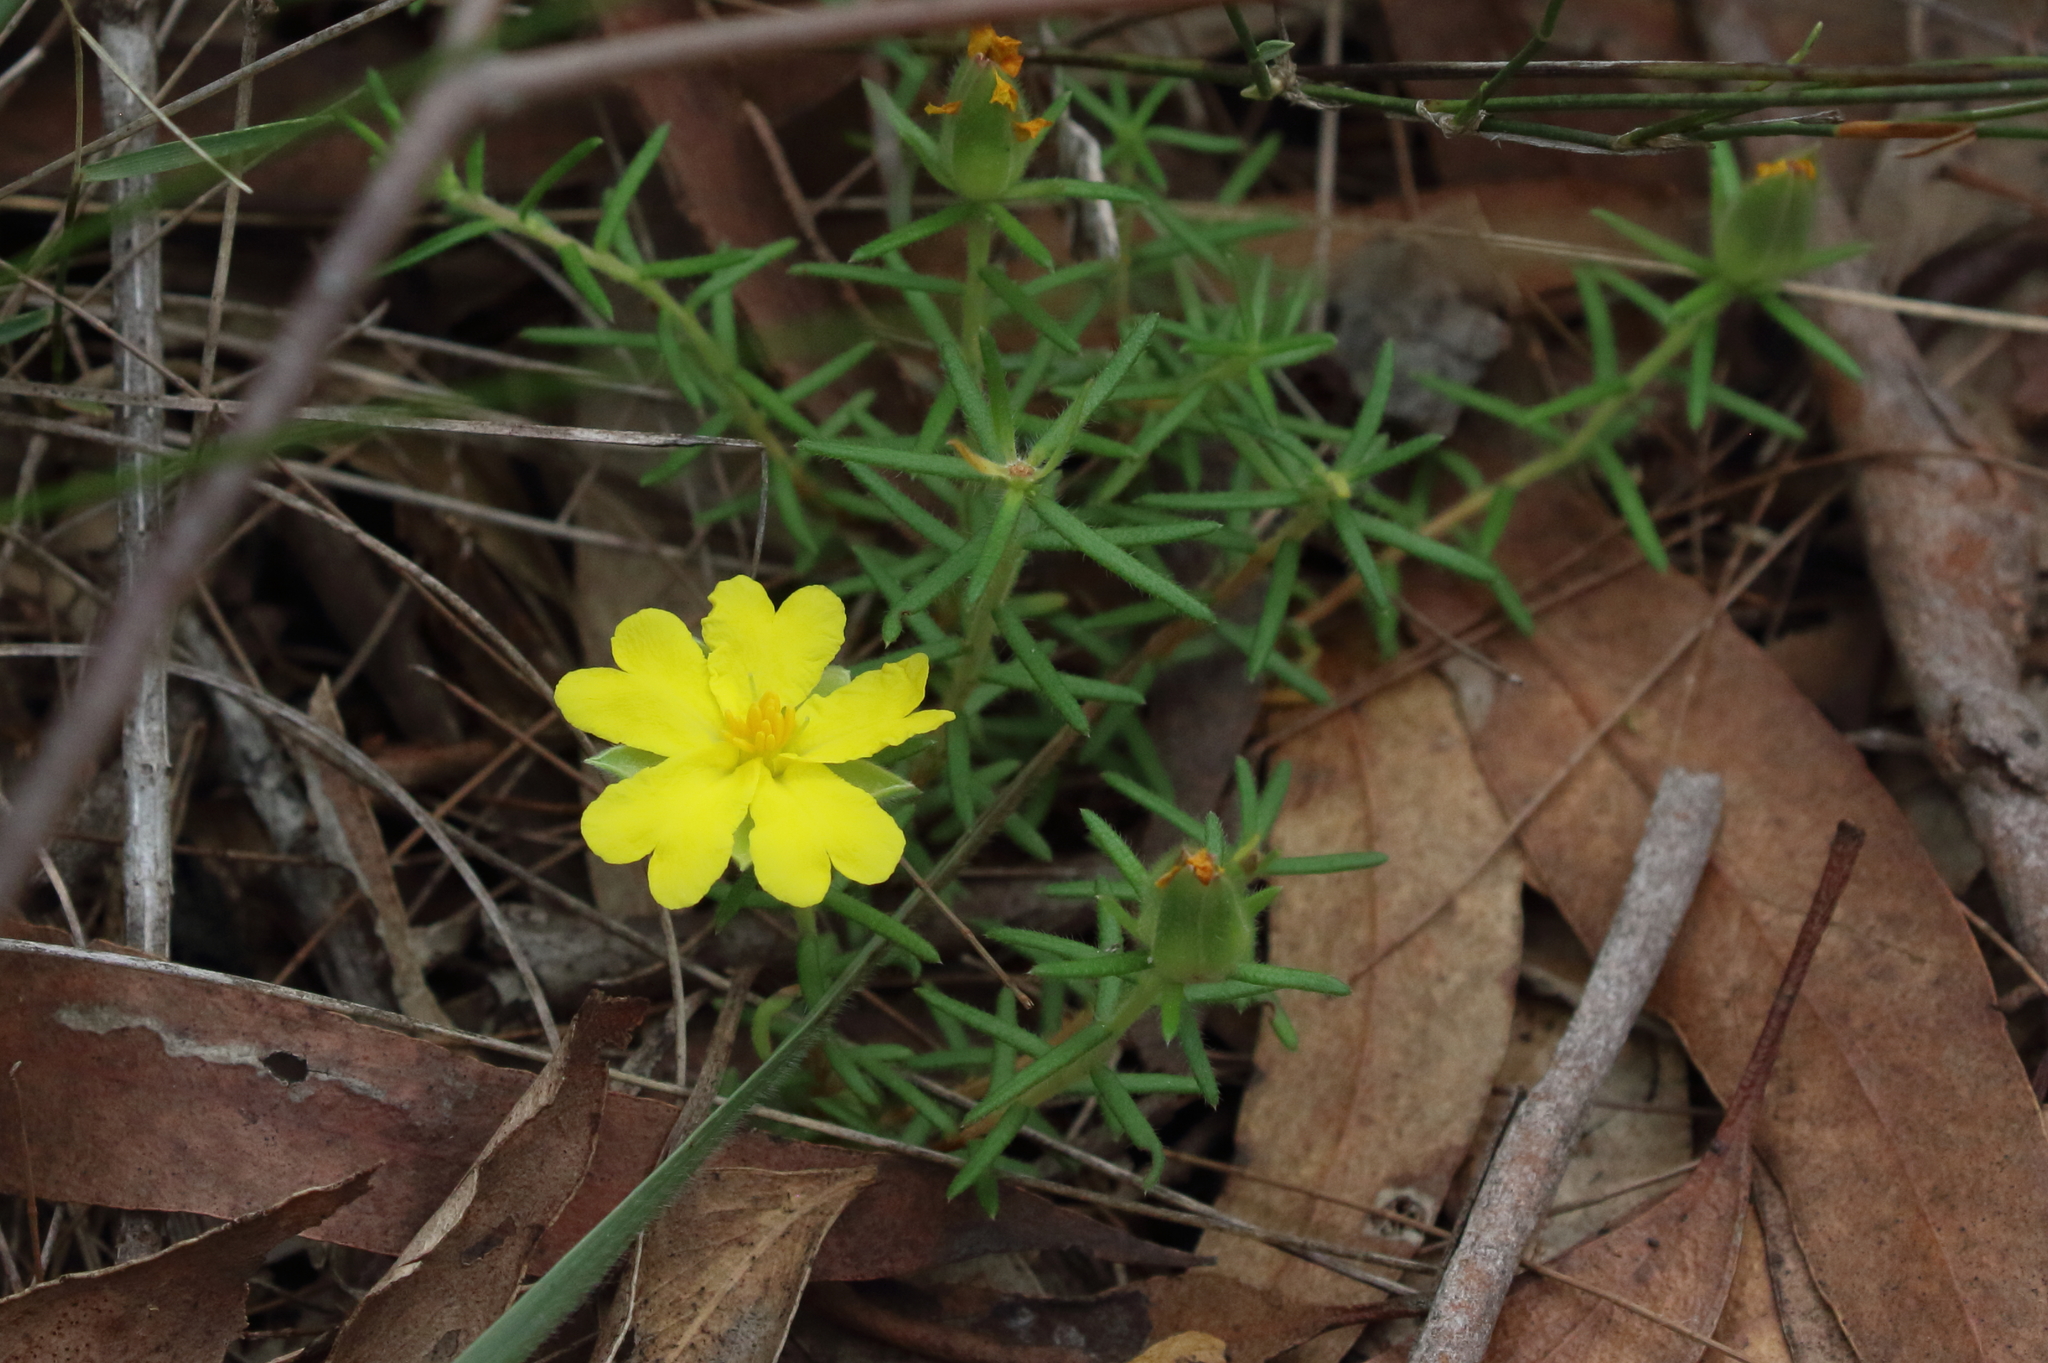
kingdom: Plantae
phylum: Tracheophyta
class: Magnoliopsida
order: Dilleniales
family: Dilleniaceae
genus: Hibbertia
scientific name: Hibbertia stricta
